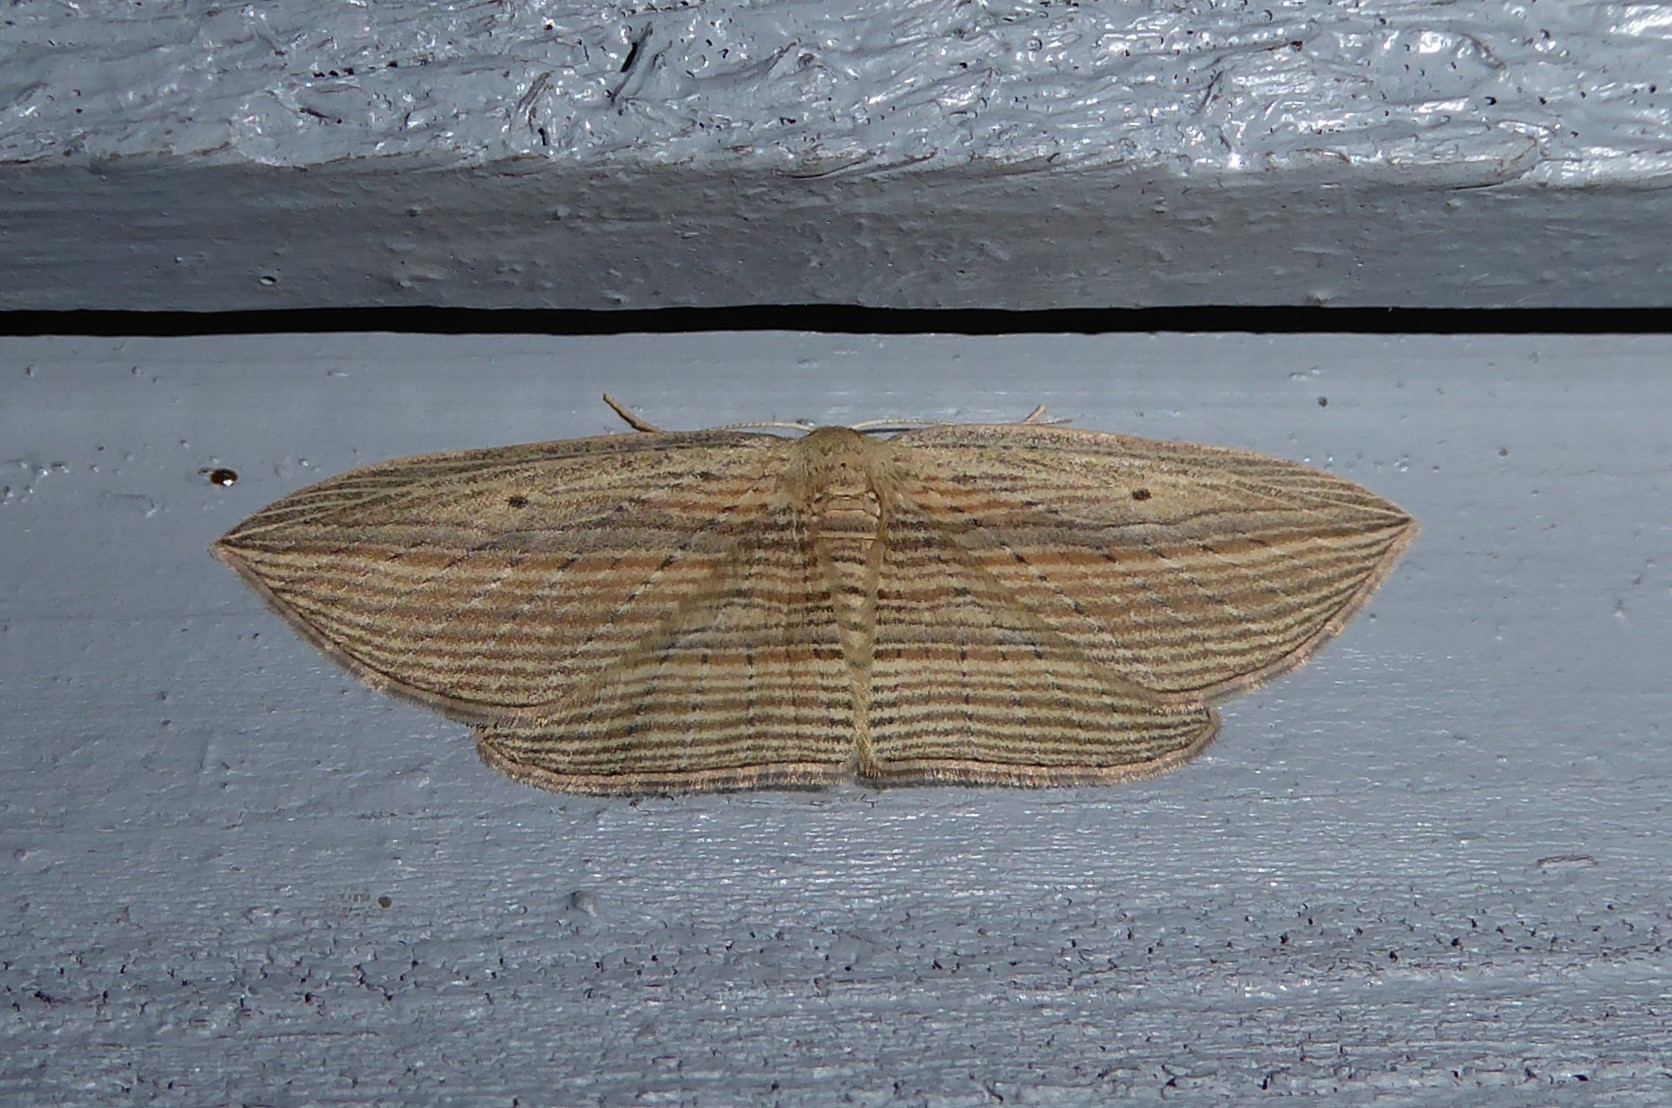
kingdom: Animalia
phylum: Arthropoda
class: Insecta
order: Lepidoptera
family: Geometridae
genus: Epiphryne
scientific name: Epiphryne verriculata
